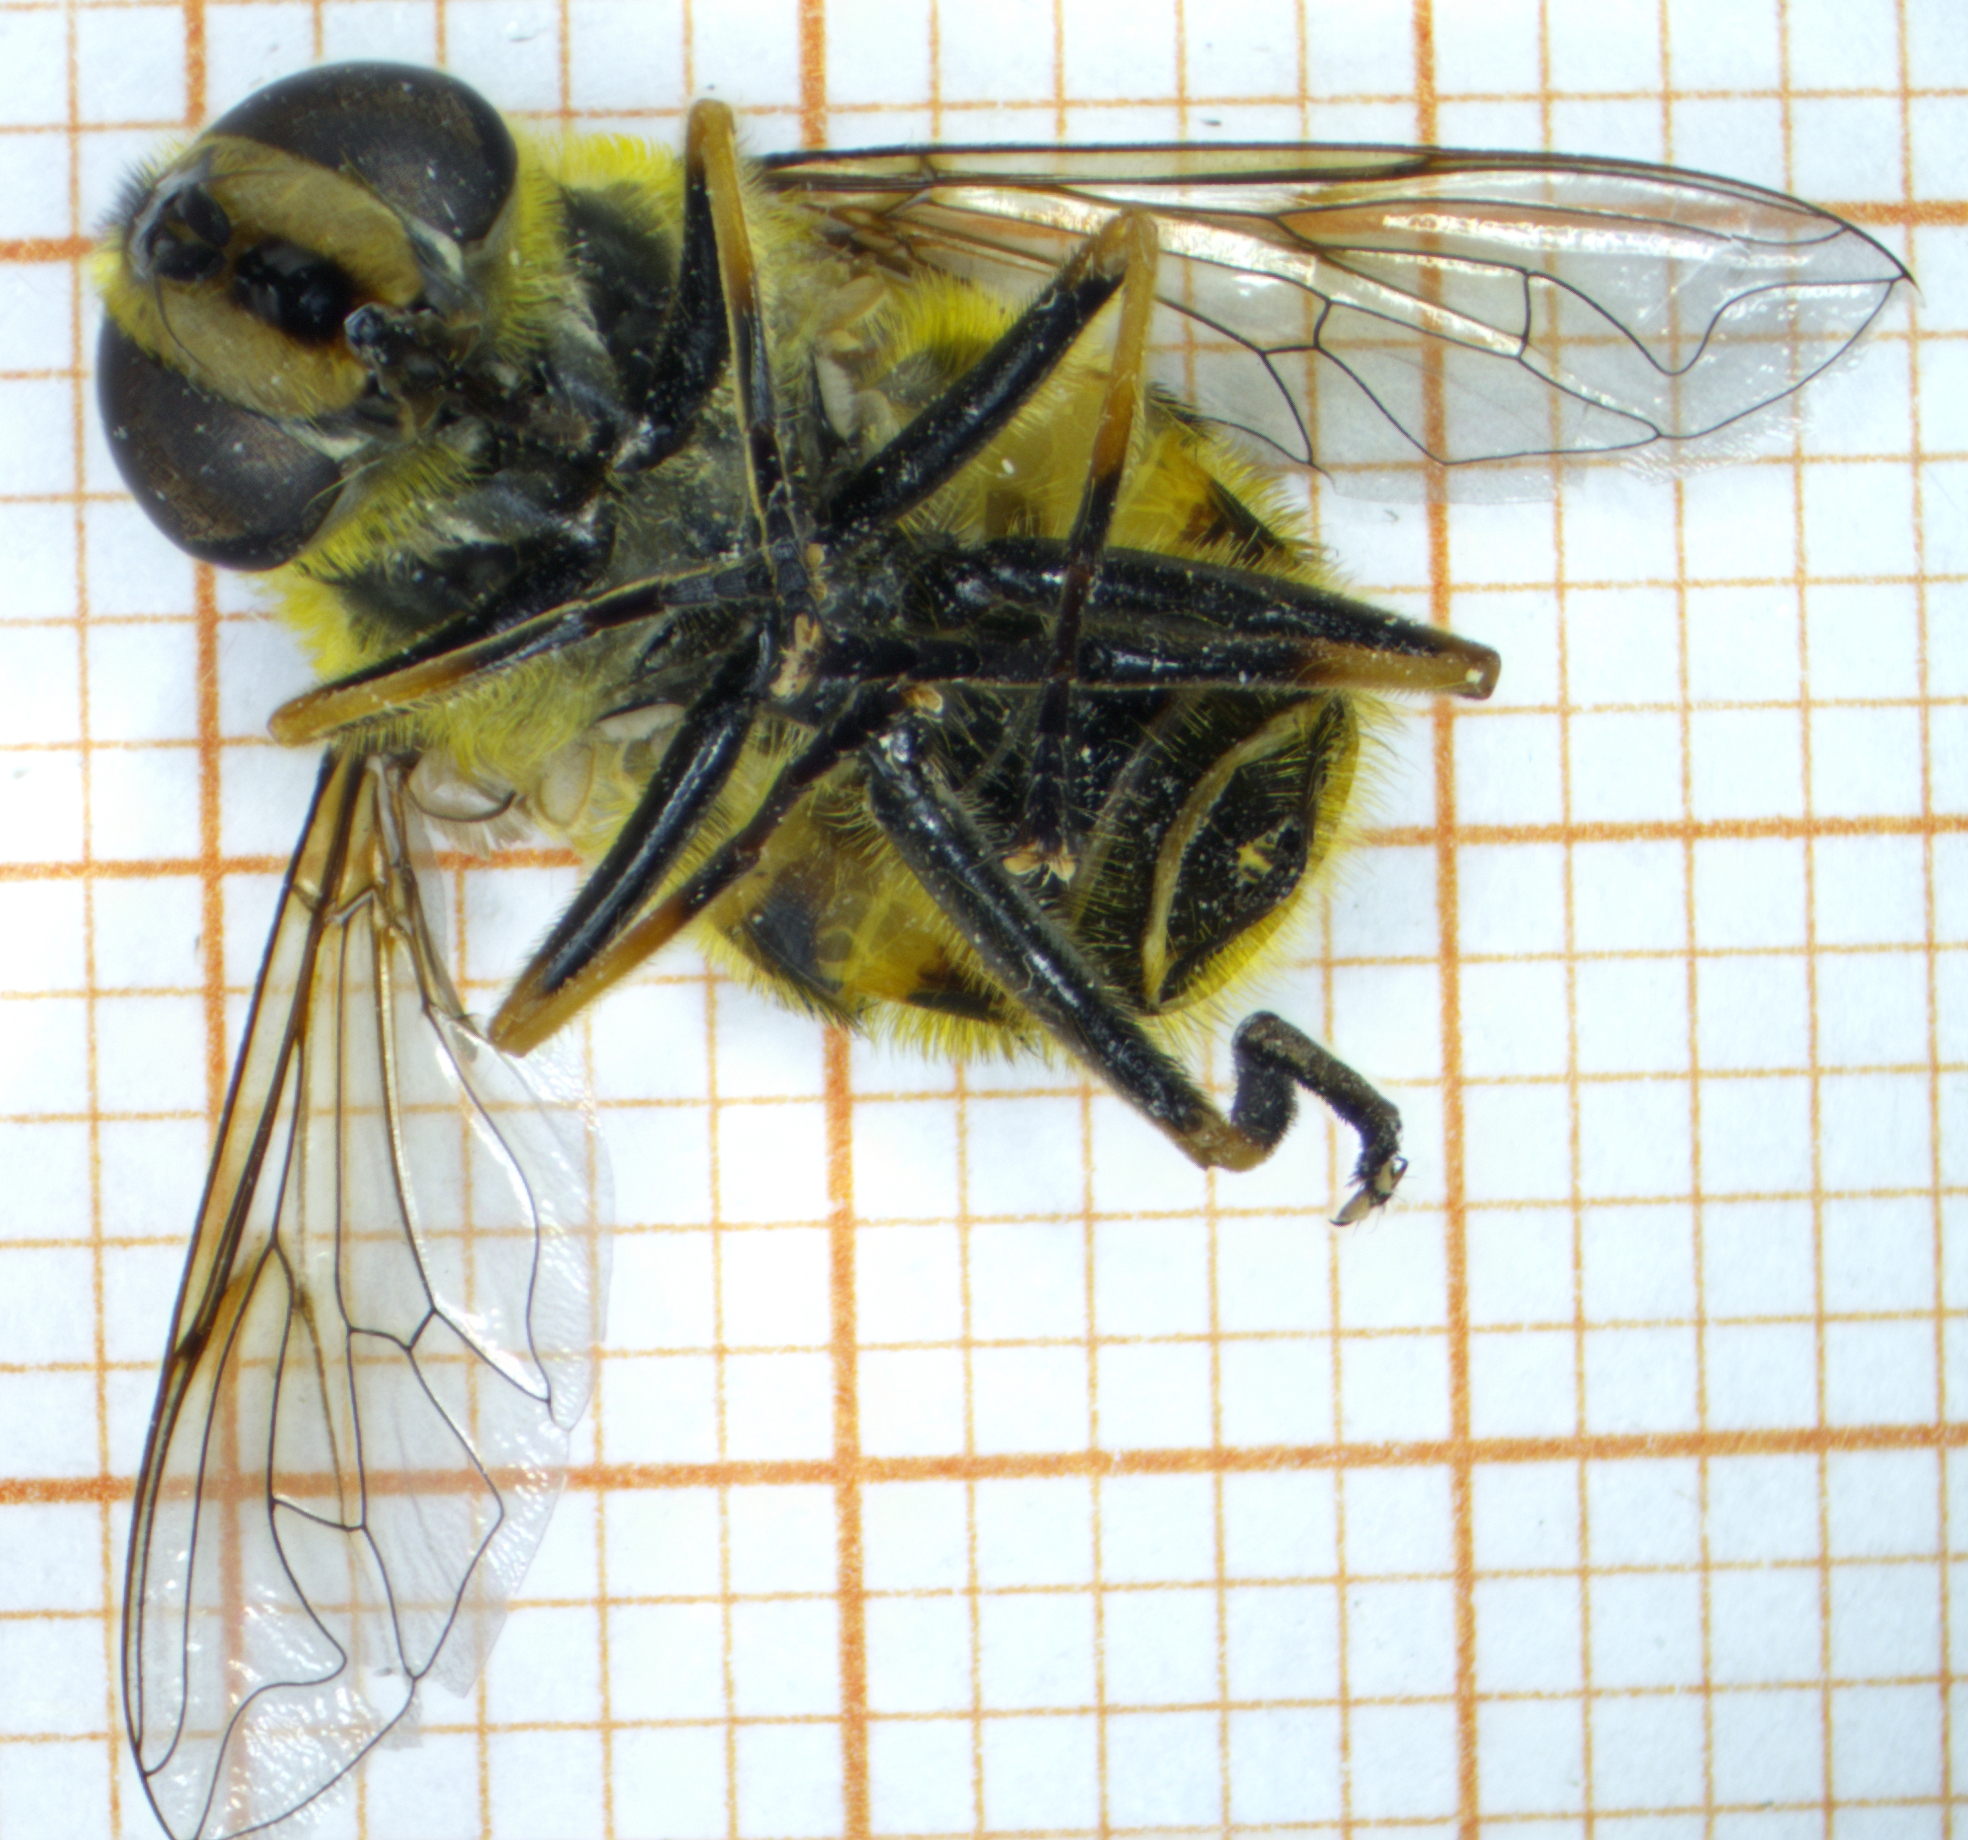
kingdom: Animalia
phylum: Arthropoda
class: Insecta
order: Diptera
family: Syrphidae
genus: Myathropa
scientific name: Myathropa florea
